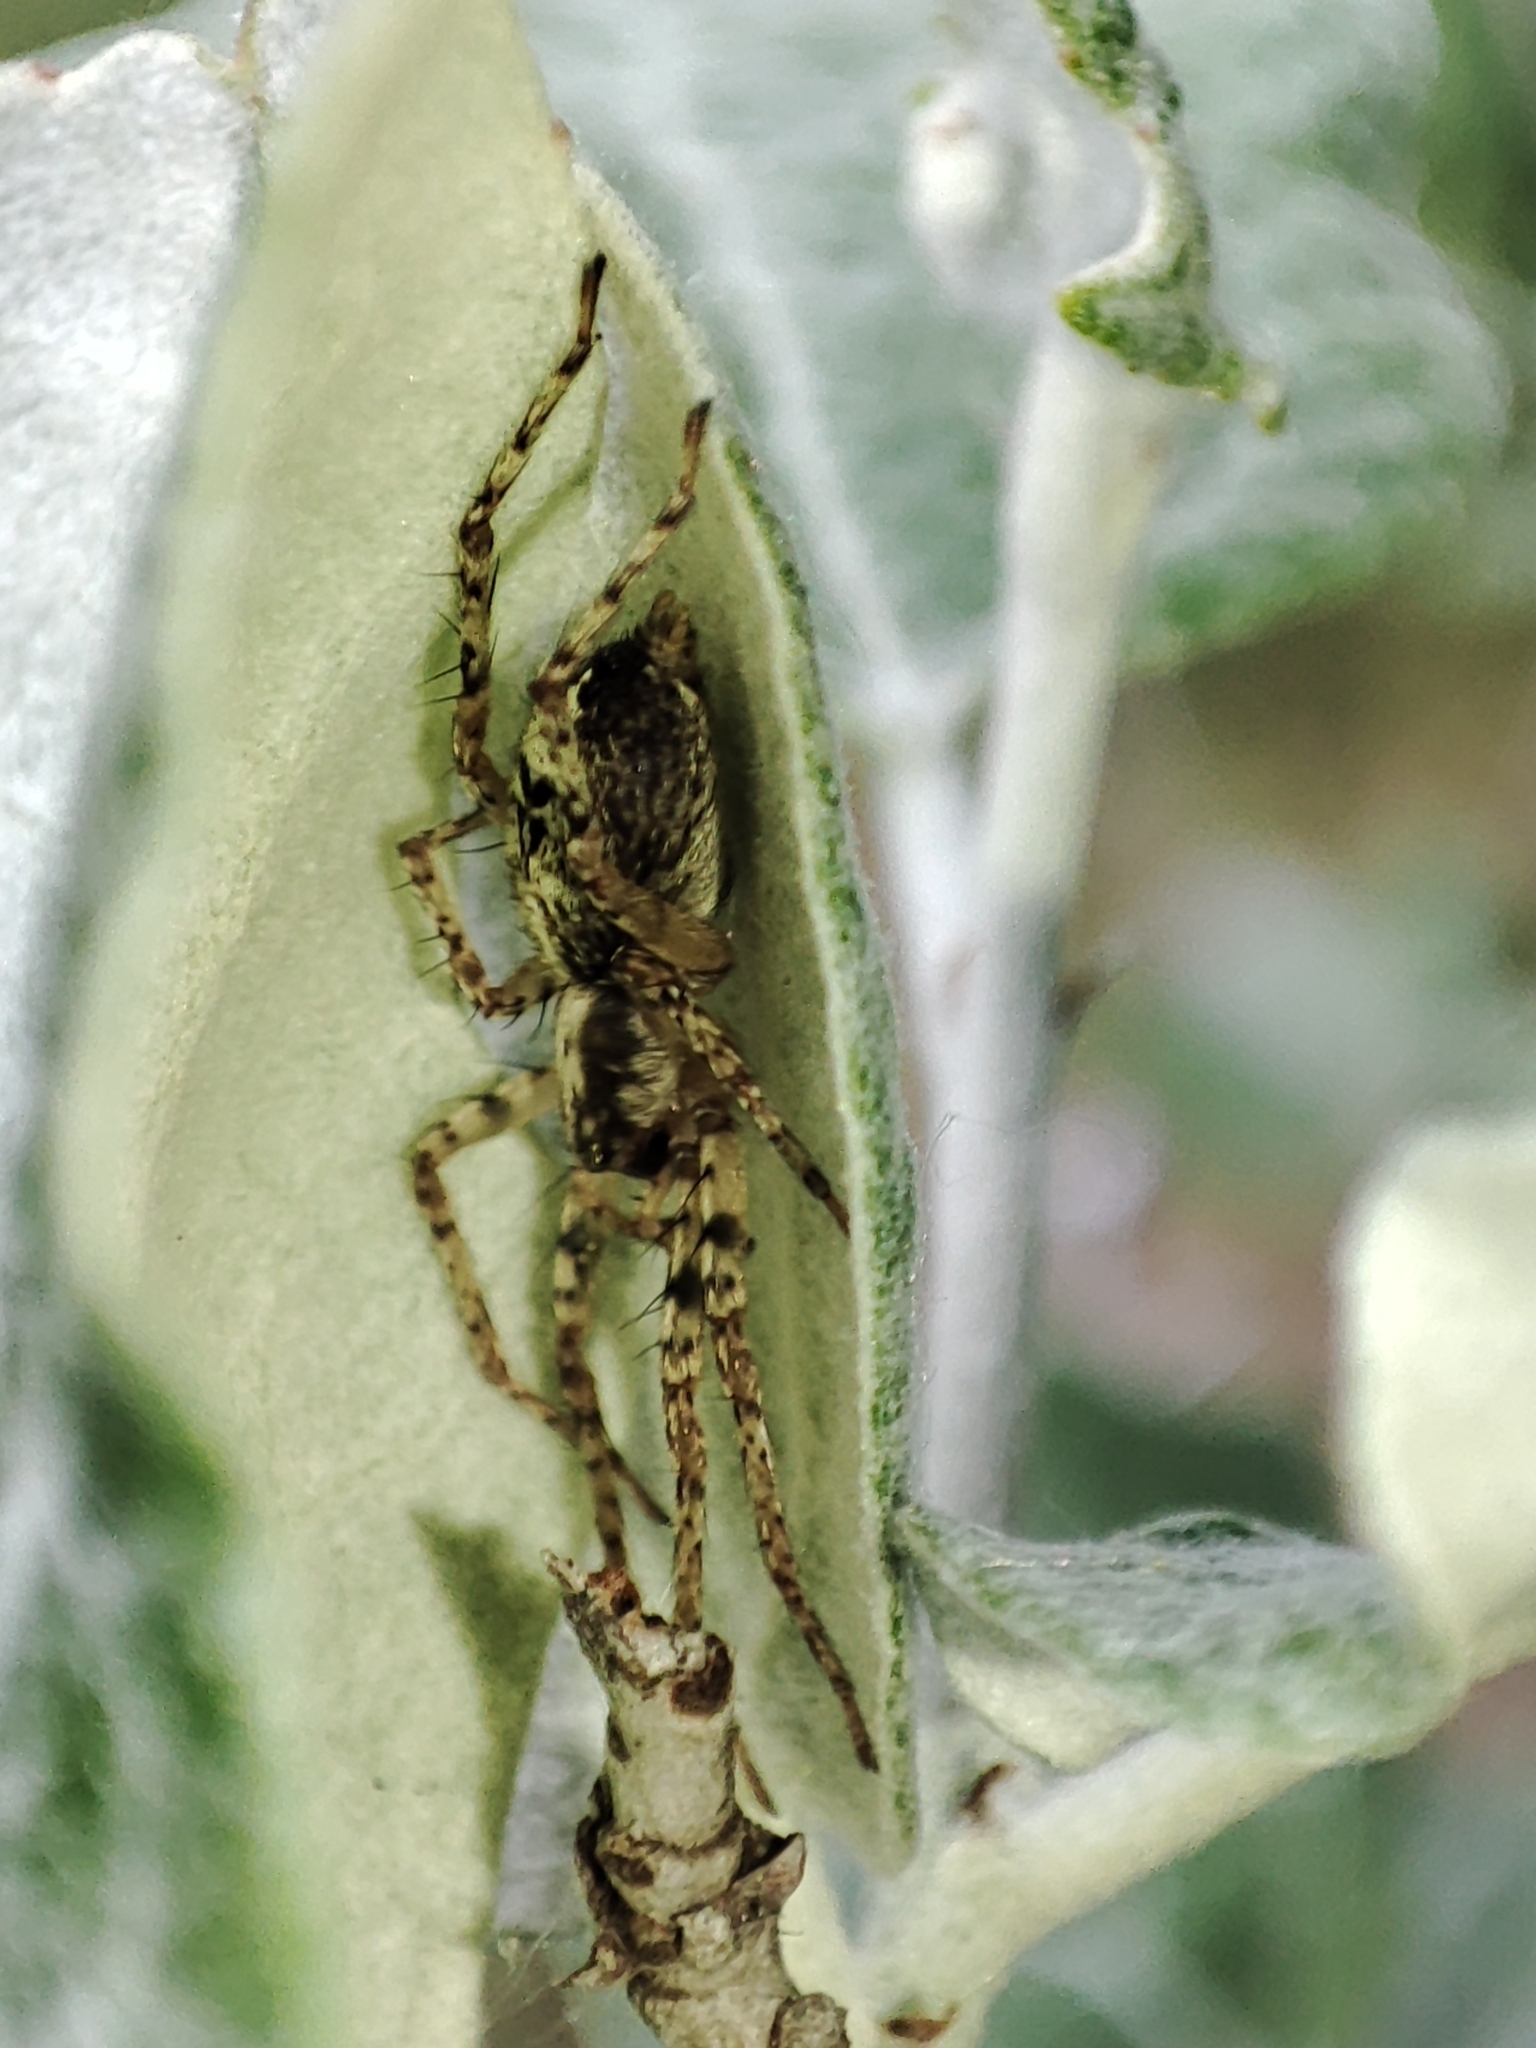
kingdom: Animalia
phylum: Arthropoda
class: Arachnida
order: Araneae
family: Anyphaenidae
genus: Anyphaena
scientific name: Anyphaena accentuata
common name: Buzzing spider
